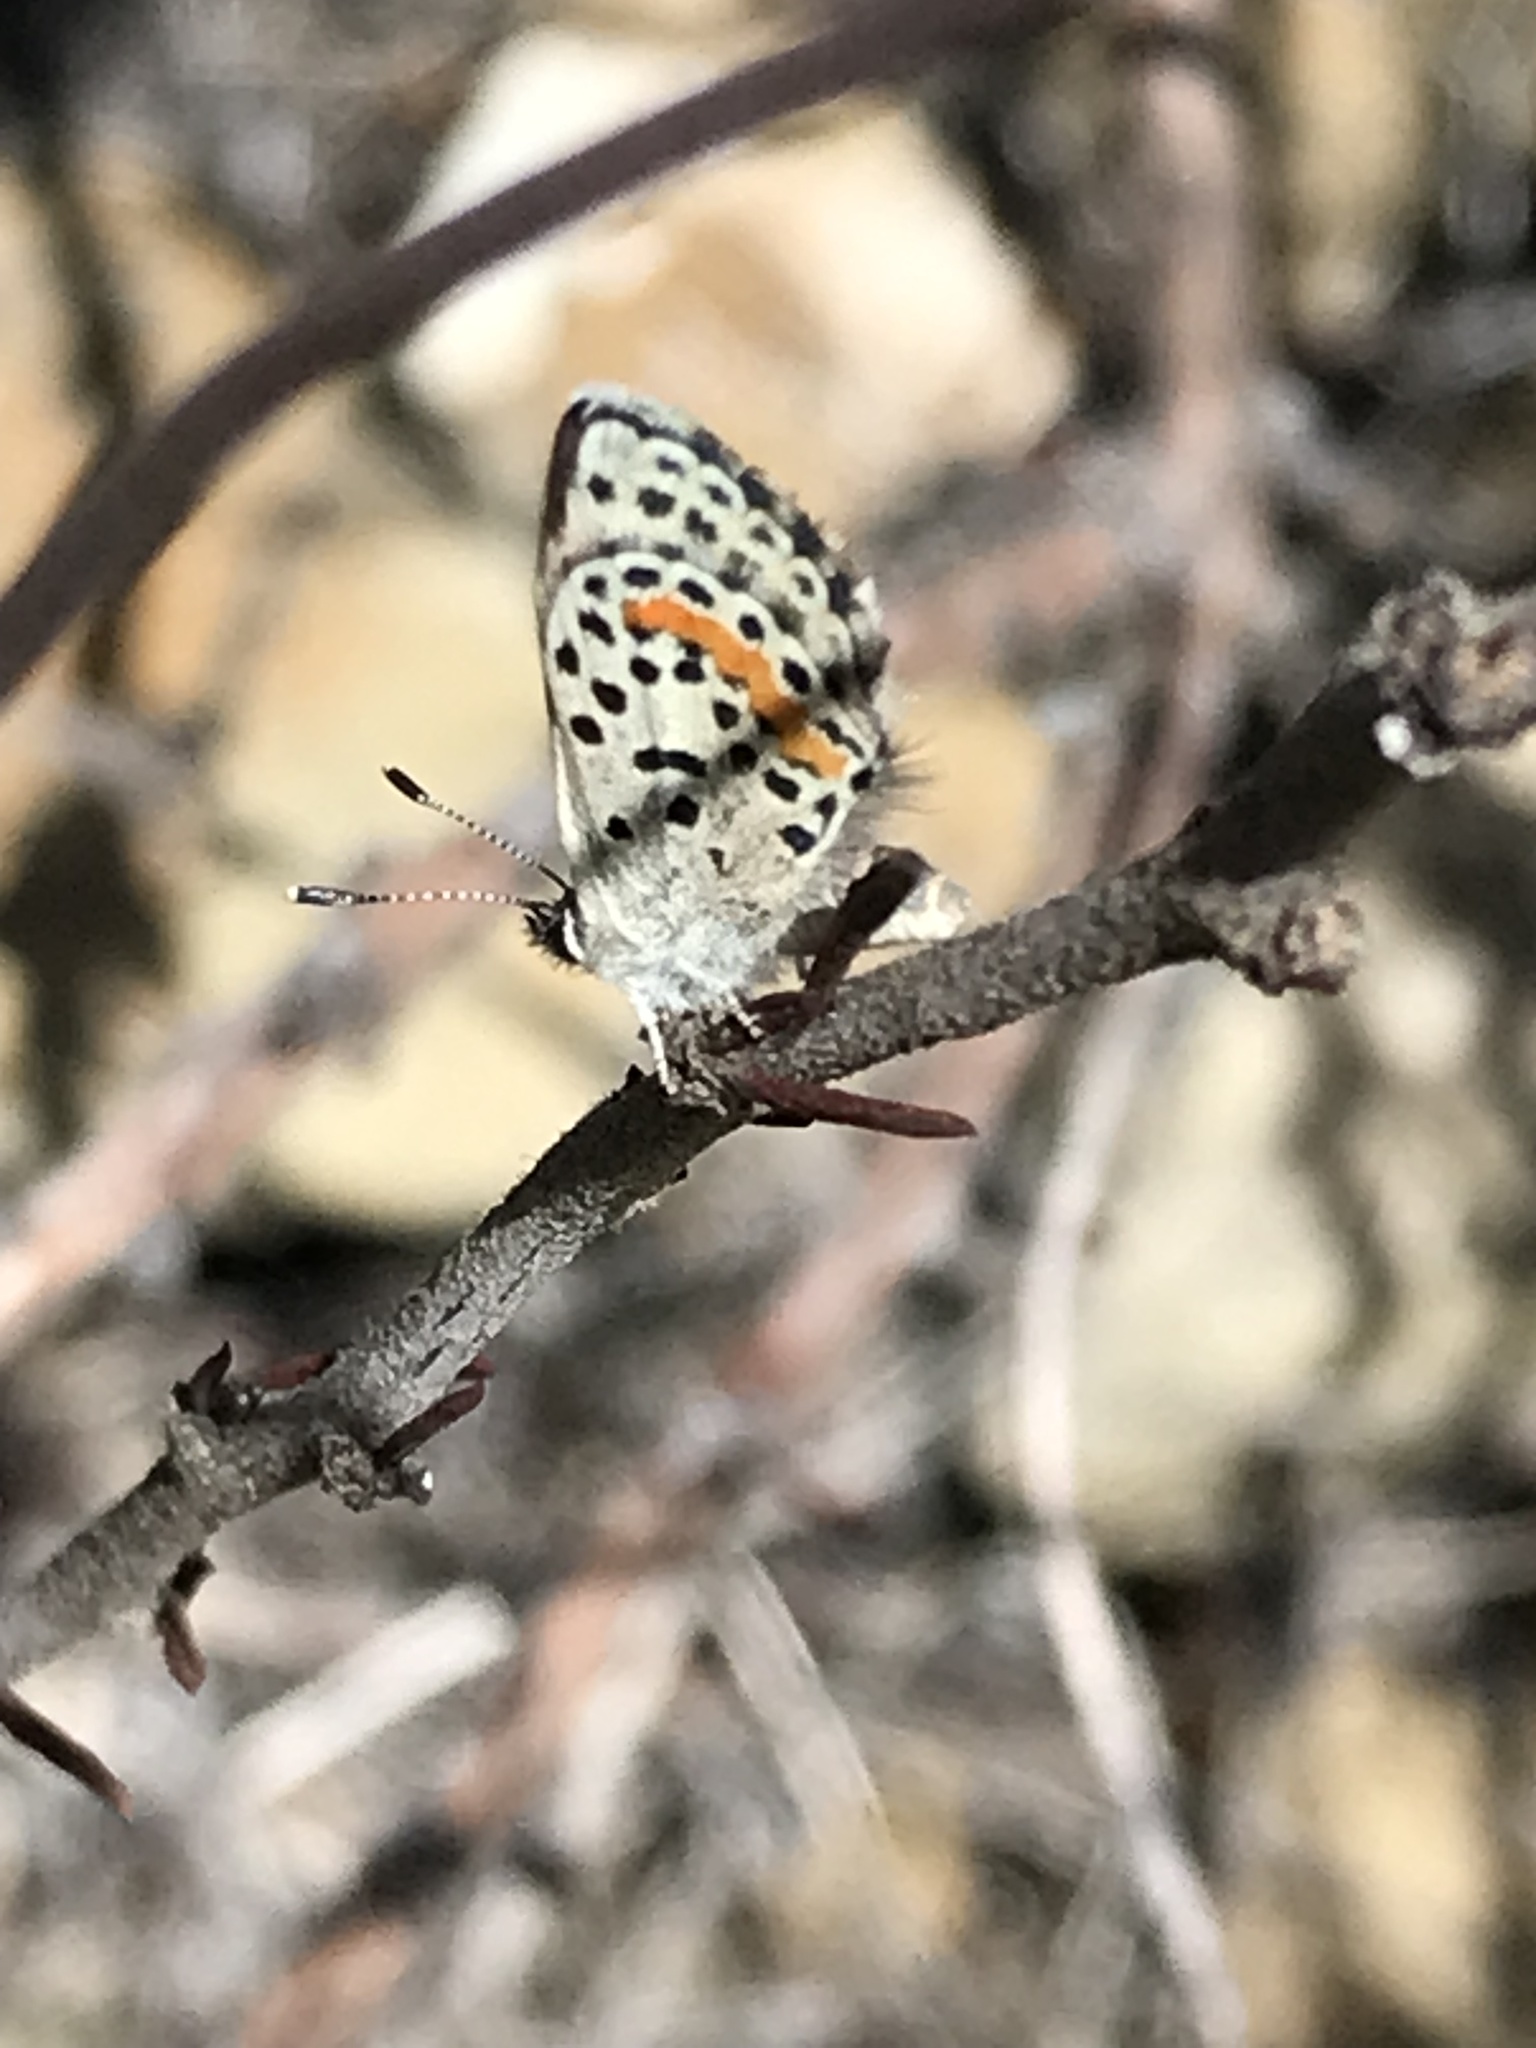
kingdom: Animalia
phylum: Arthropoda
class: Insecta
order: Lepidoptera
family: Lycaenidae
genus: Philotes
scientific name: Philotes bernardino
